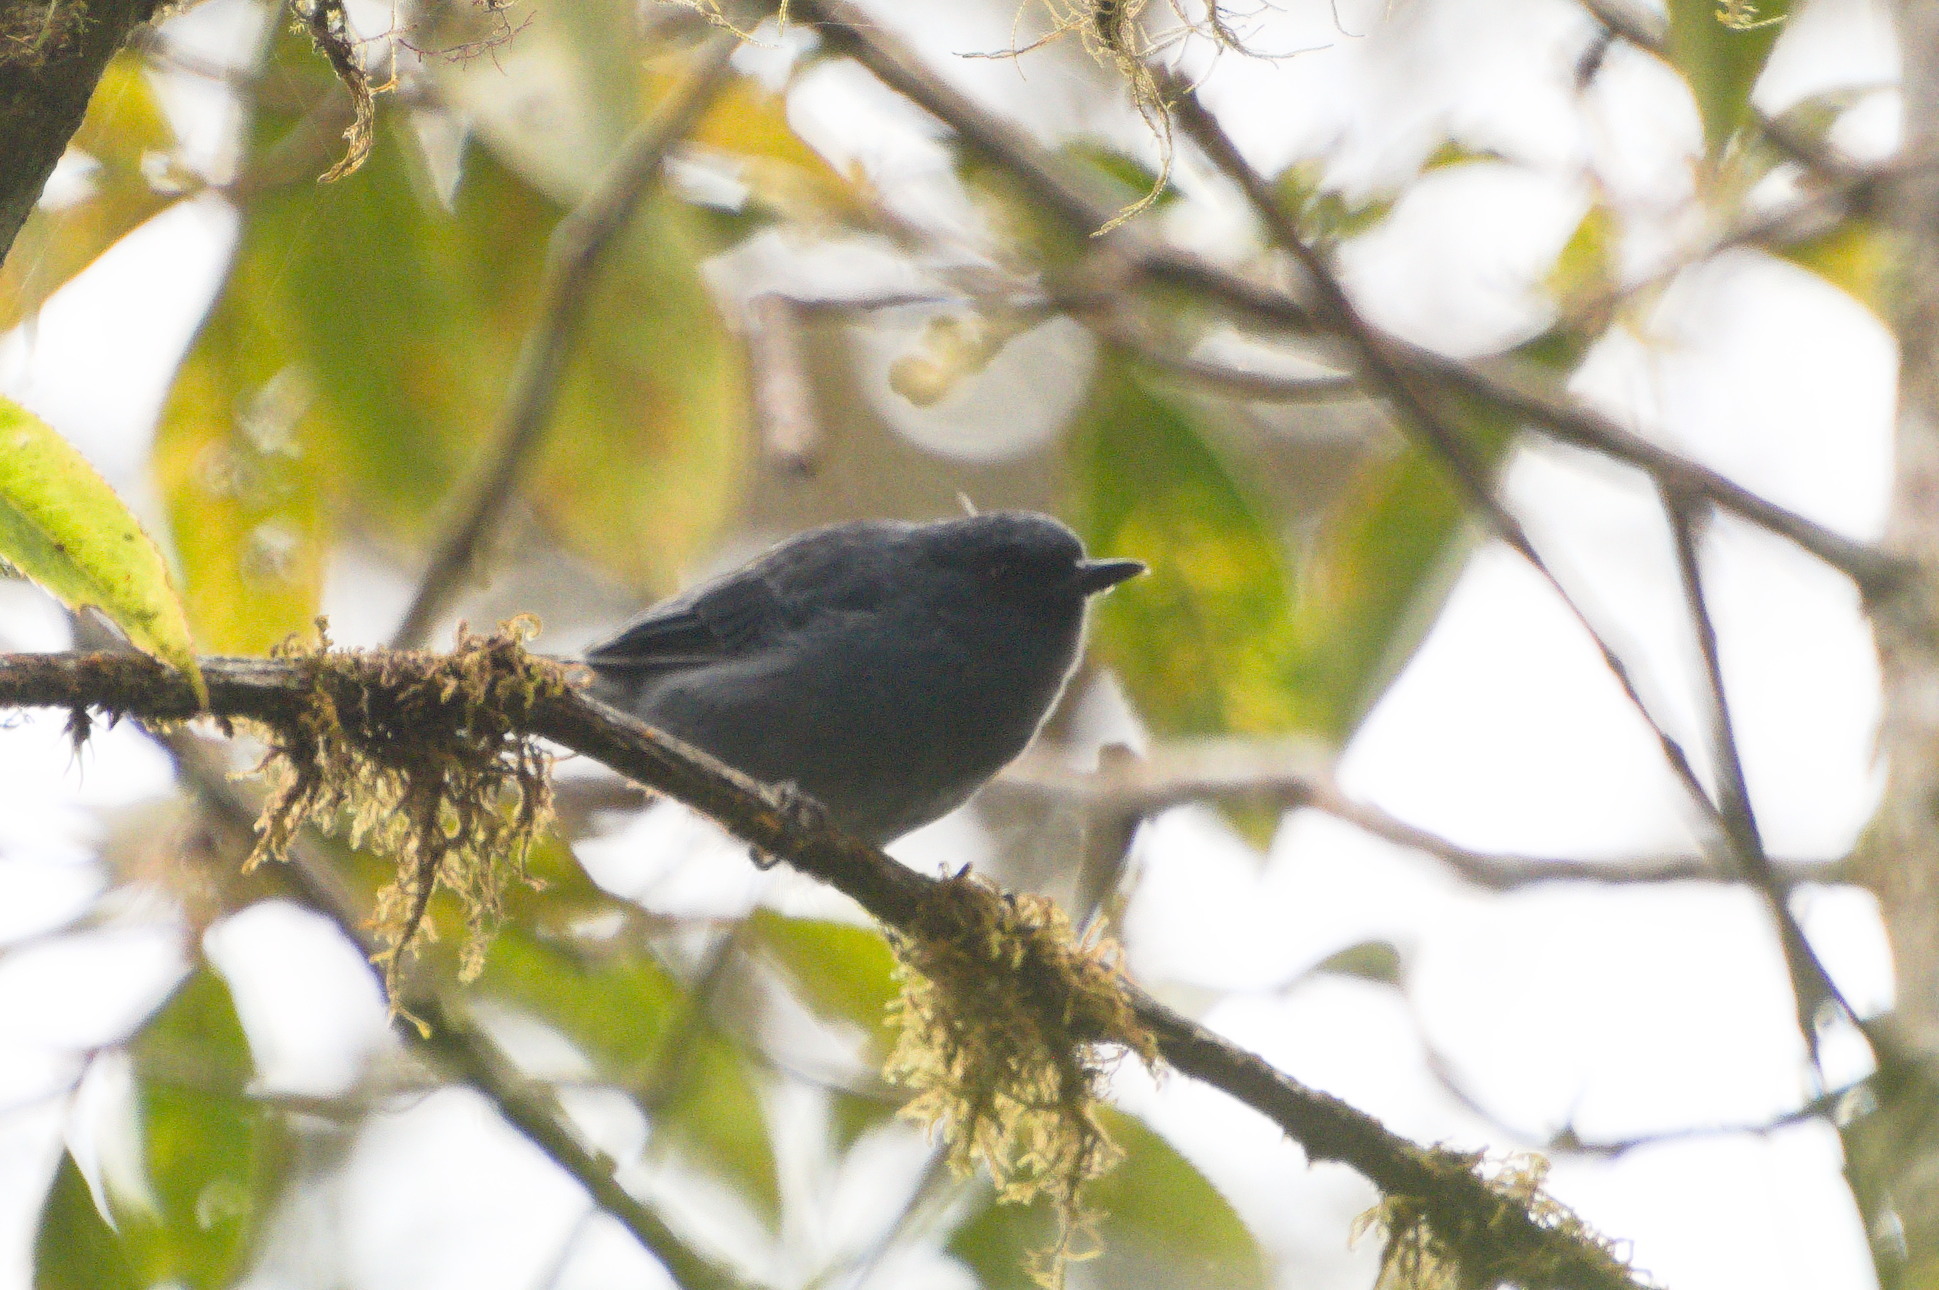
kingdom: Animalia
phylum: Chordata
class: Aves
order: Passeriformes
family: Thraupidae
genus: Diglossa
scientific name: Diglossa caerulescens
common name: Bluish flowerpiercer
